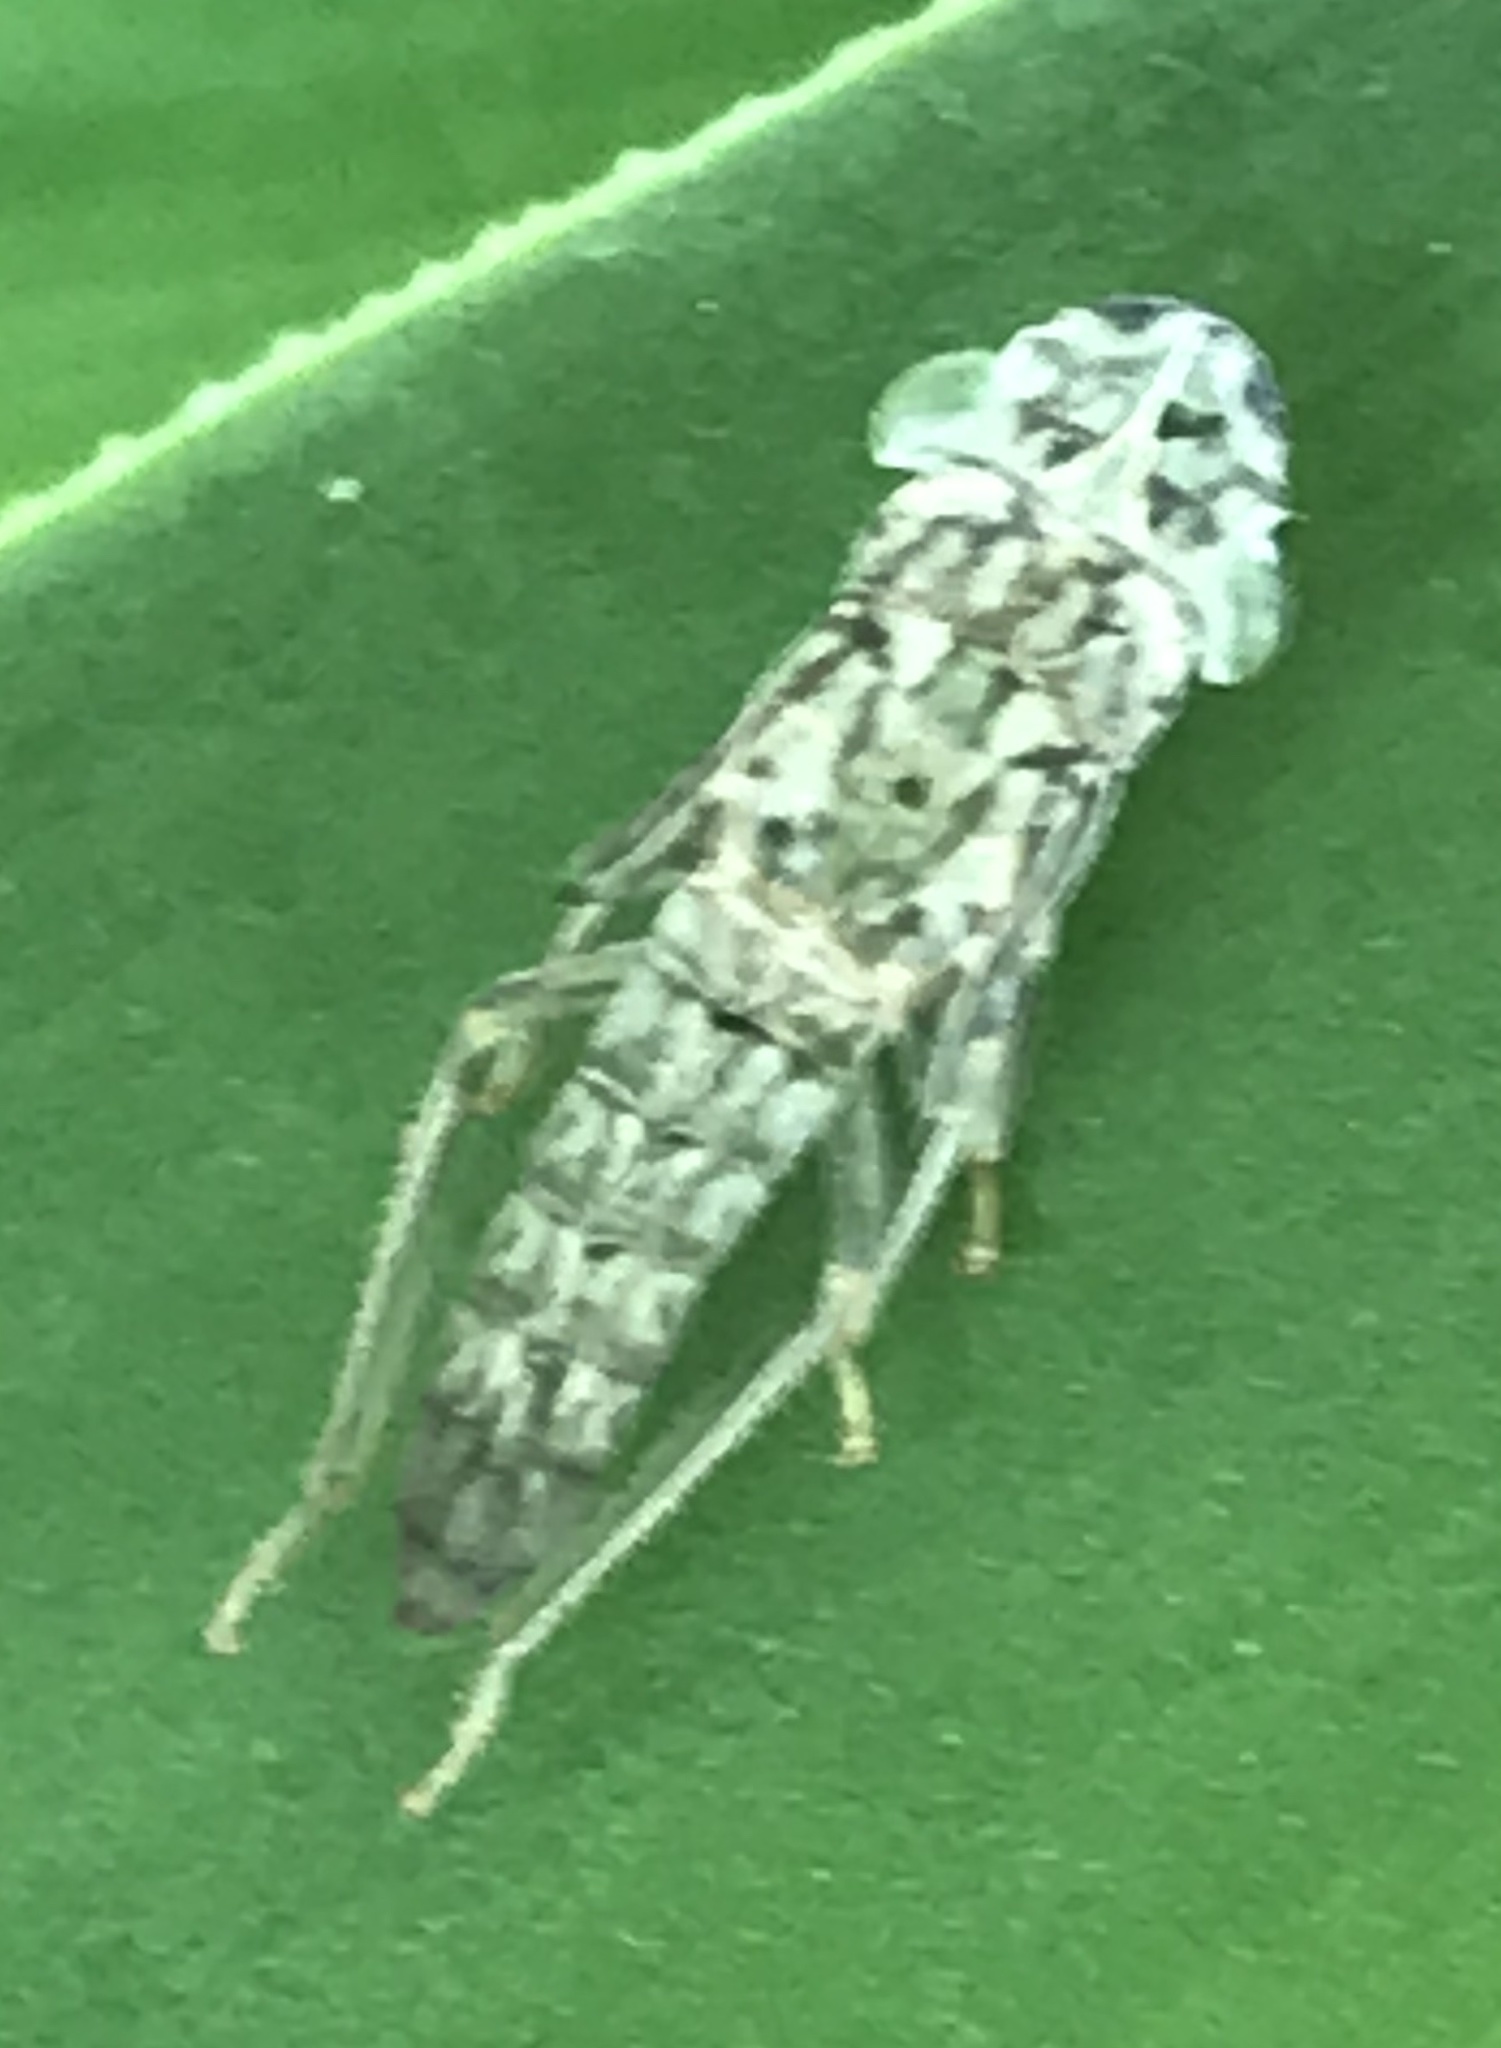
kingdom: Animalia
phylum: Arthropoda
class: Insecta
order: Hemiptera
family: Cicadellidae
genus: Oncometopia
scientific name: Oncometopia orbona
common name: Broad-headed sharpshooter
